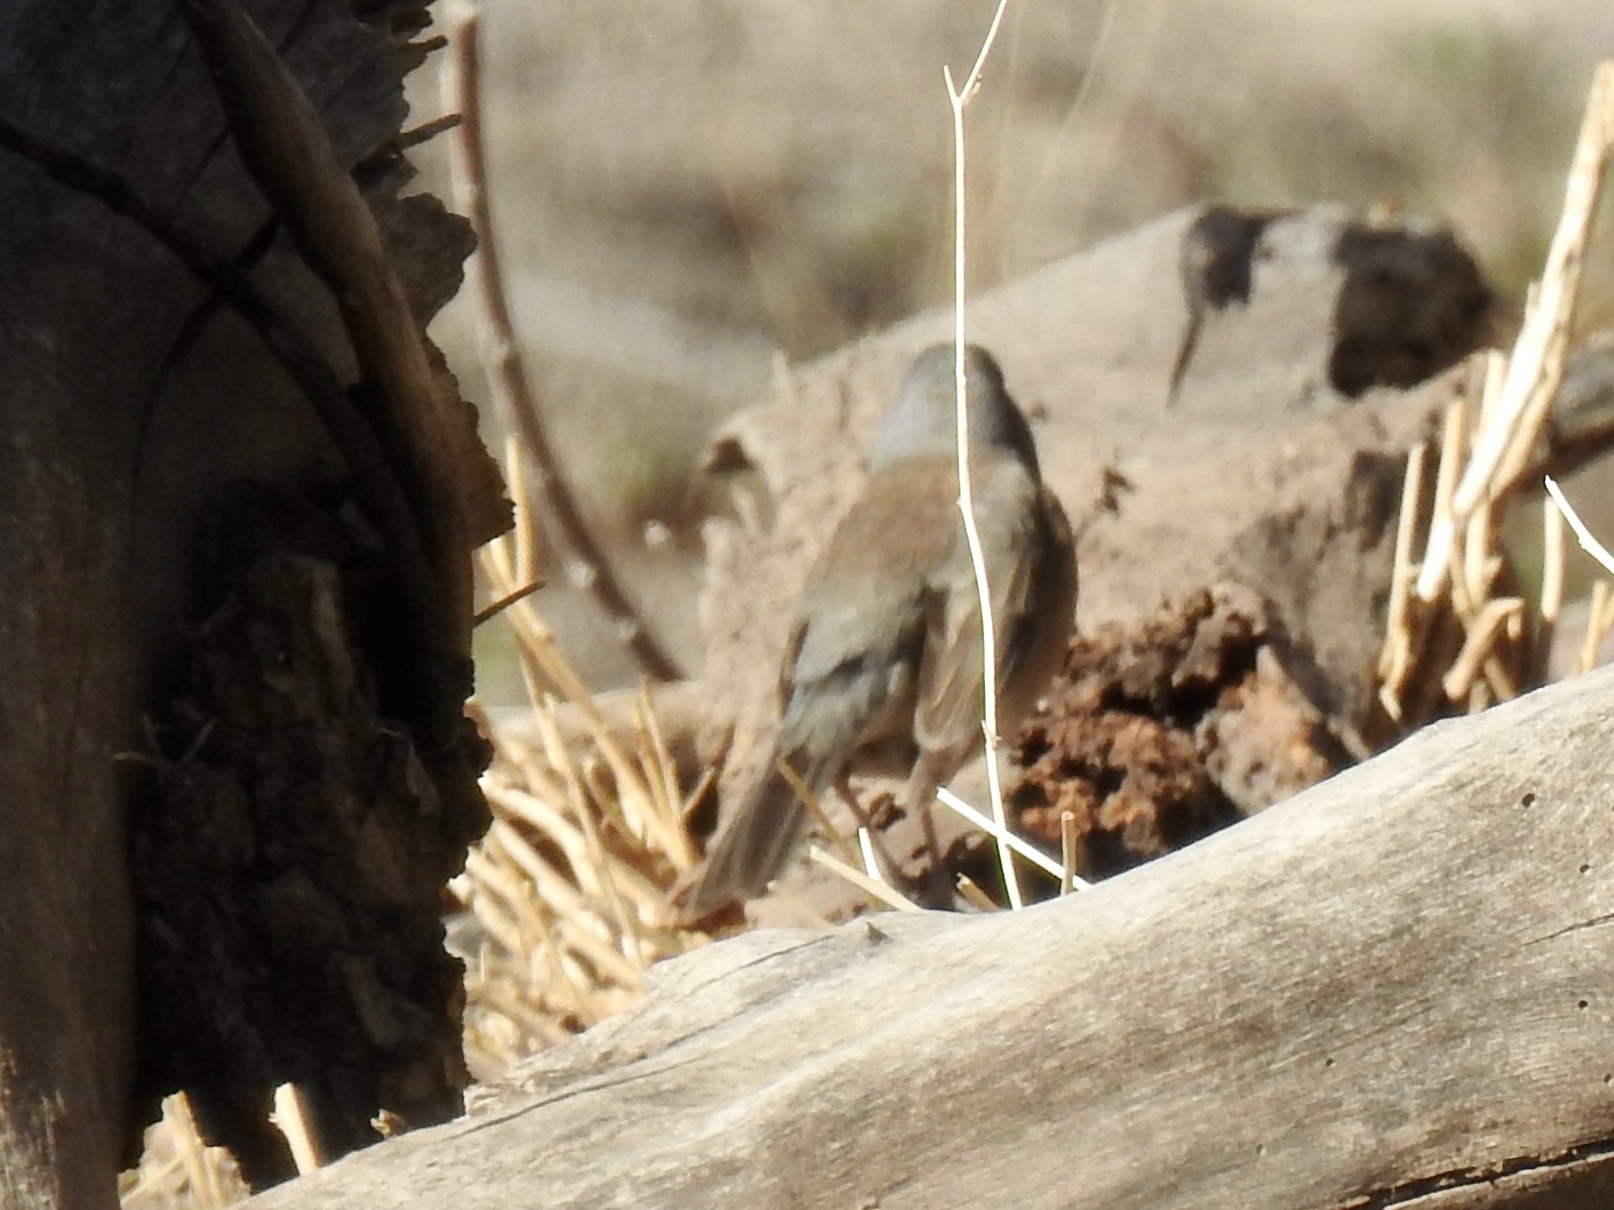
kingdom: Animalia
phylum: Chordata
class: Aves
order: Passeriformes
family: Passerellidae
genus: Junco
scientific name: Junco hyemalis
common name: Dark-eyed junco
